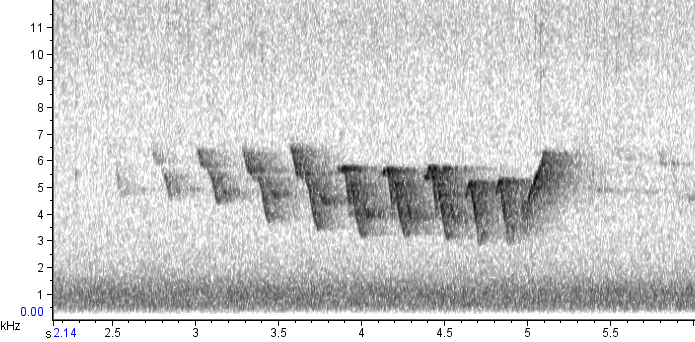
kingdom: Animalia
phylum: Chordata
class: Aves
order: Passeriformes
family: Parulidae
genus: Setophaga
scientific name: Setophaga dominica
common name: Yellow-throated warbler
